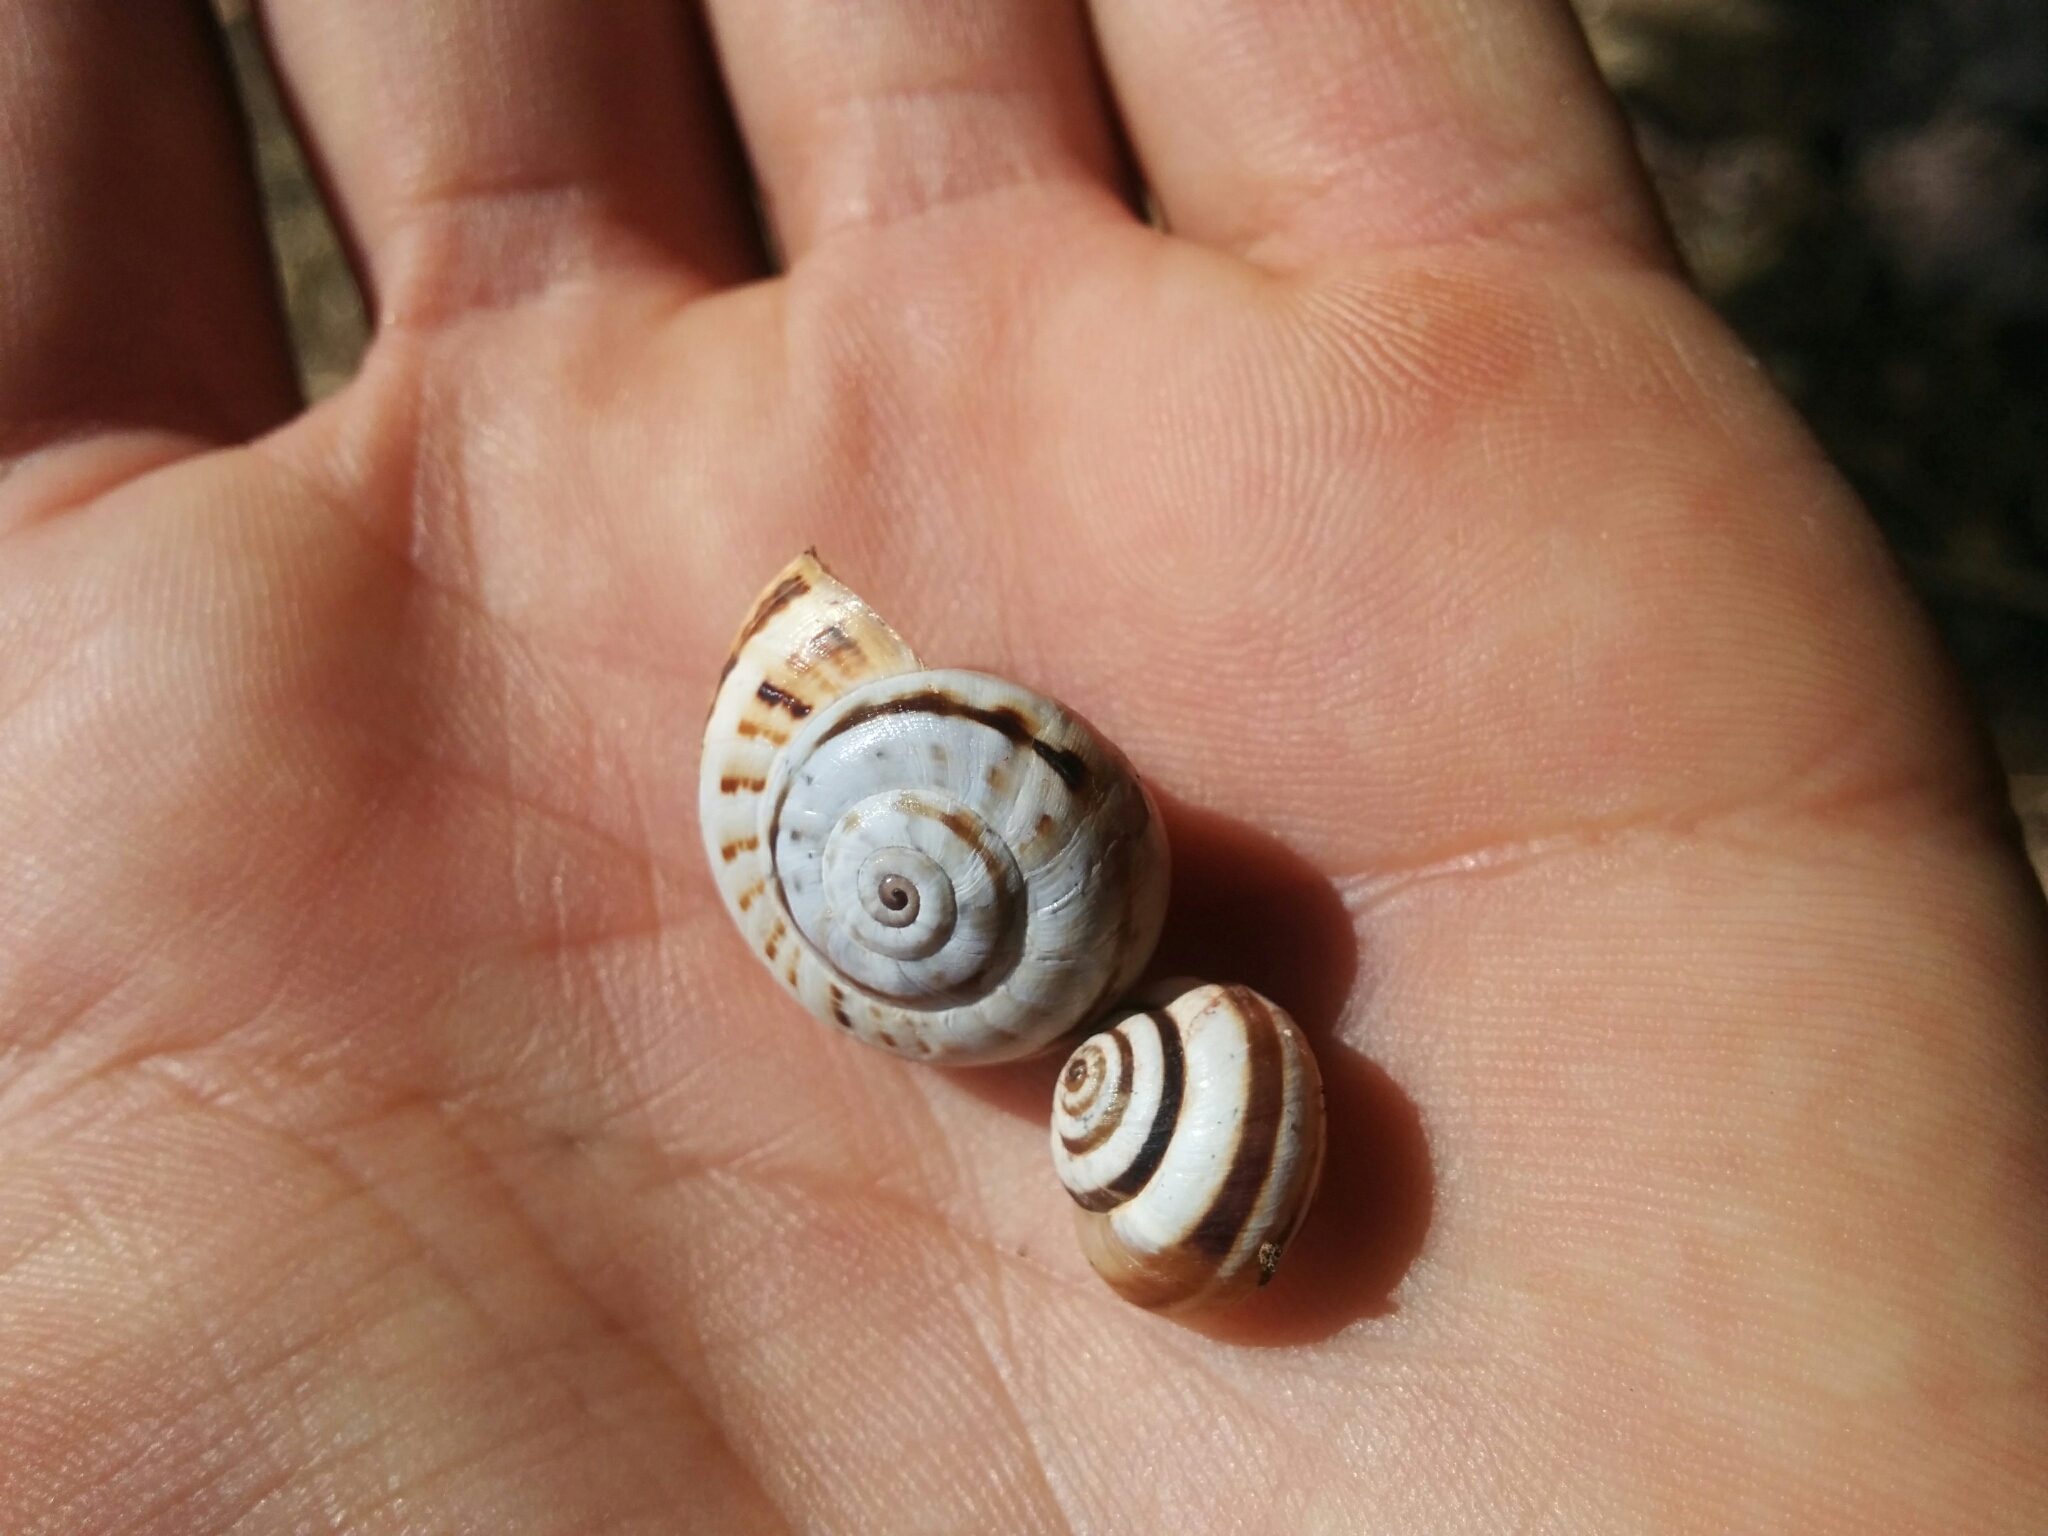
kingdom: Animalia
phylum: Mollusca
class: Gastropoda
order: Stylommatophora
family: Helicidae
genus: Theba
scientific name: Theba pisana
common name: White snail
